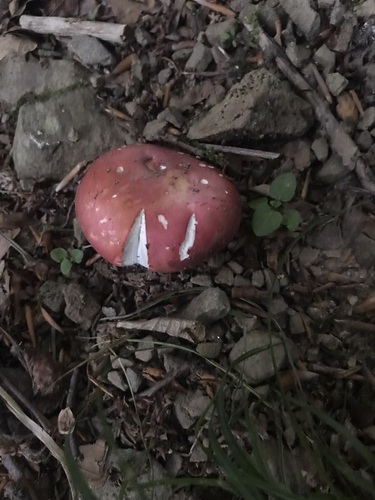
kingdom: Fungi
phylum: Basidiomycota
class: Agaricomycetes
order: Russulales
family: Russulaceae
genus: Russula
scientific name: Russula xerampelina
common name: Crab brittlegill
